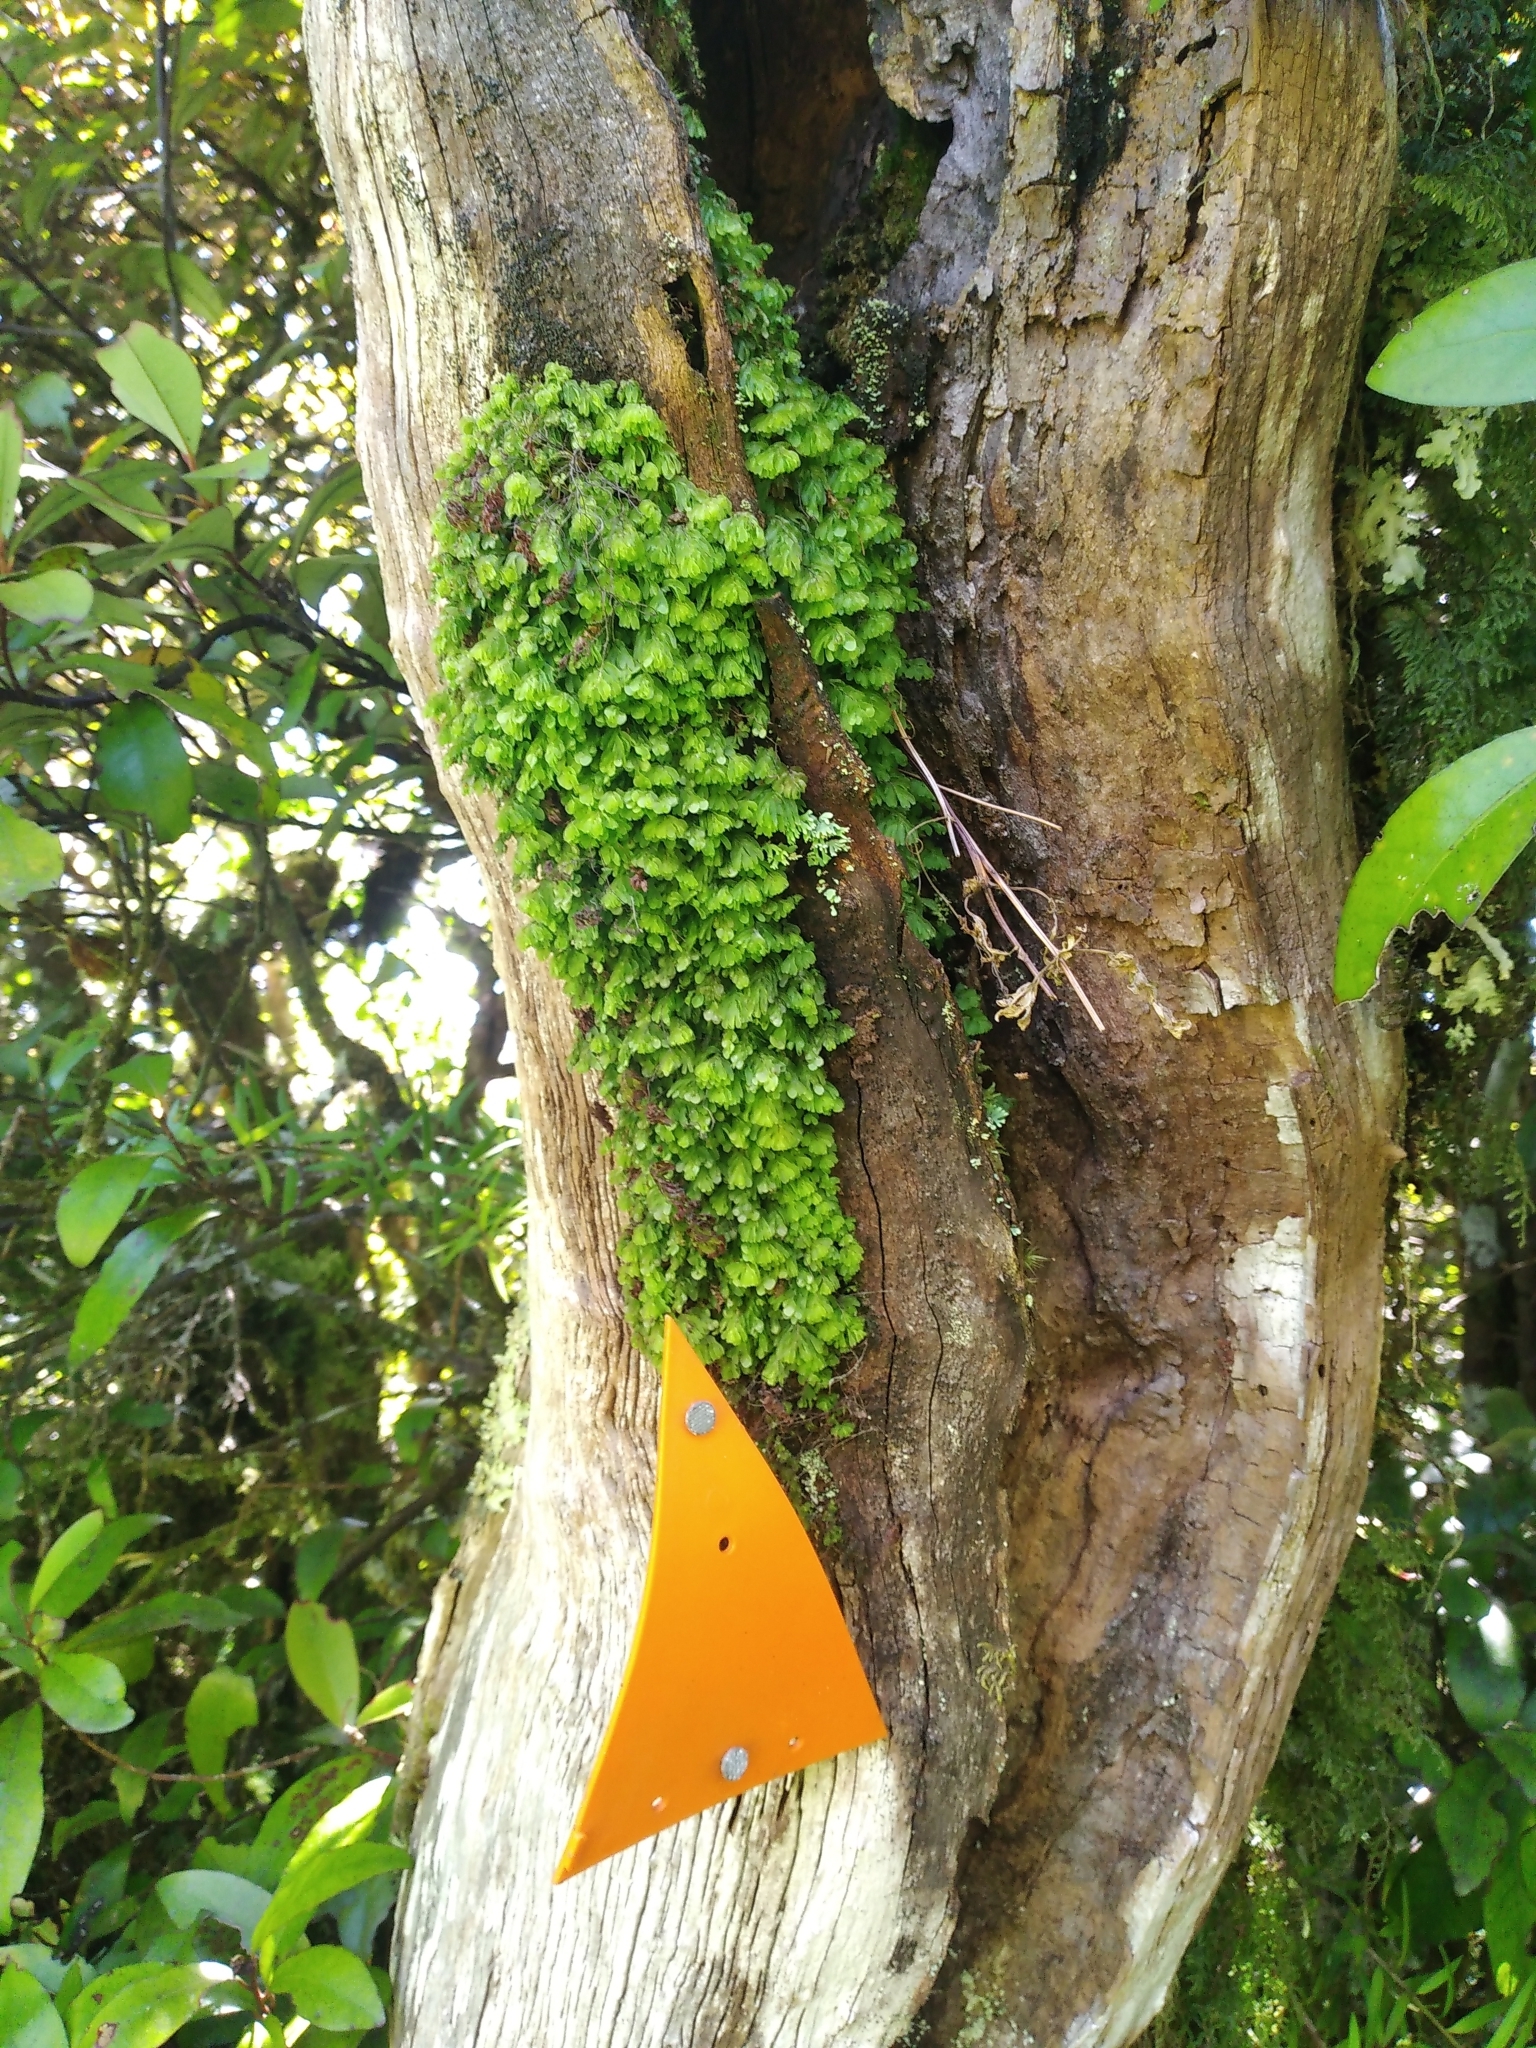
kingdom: Plantae
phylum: Tracheophyta
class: Polypodiopsida
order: Hymenophyllales
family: Hymenophyllaceae
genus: Hymenophyllum
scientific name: Hymenophyllum rarum
